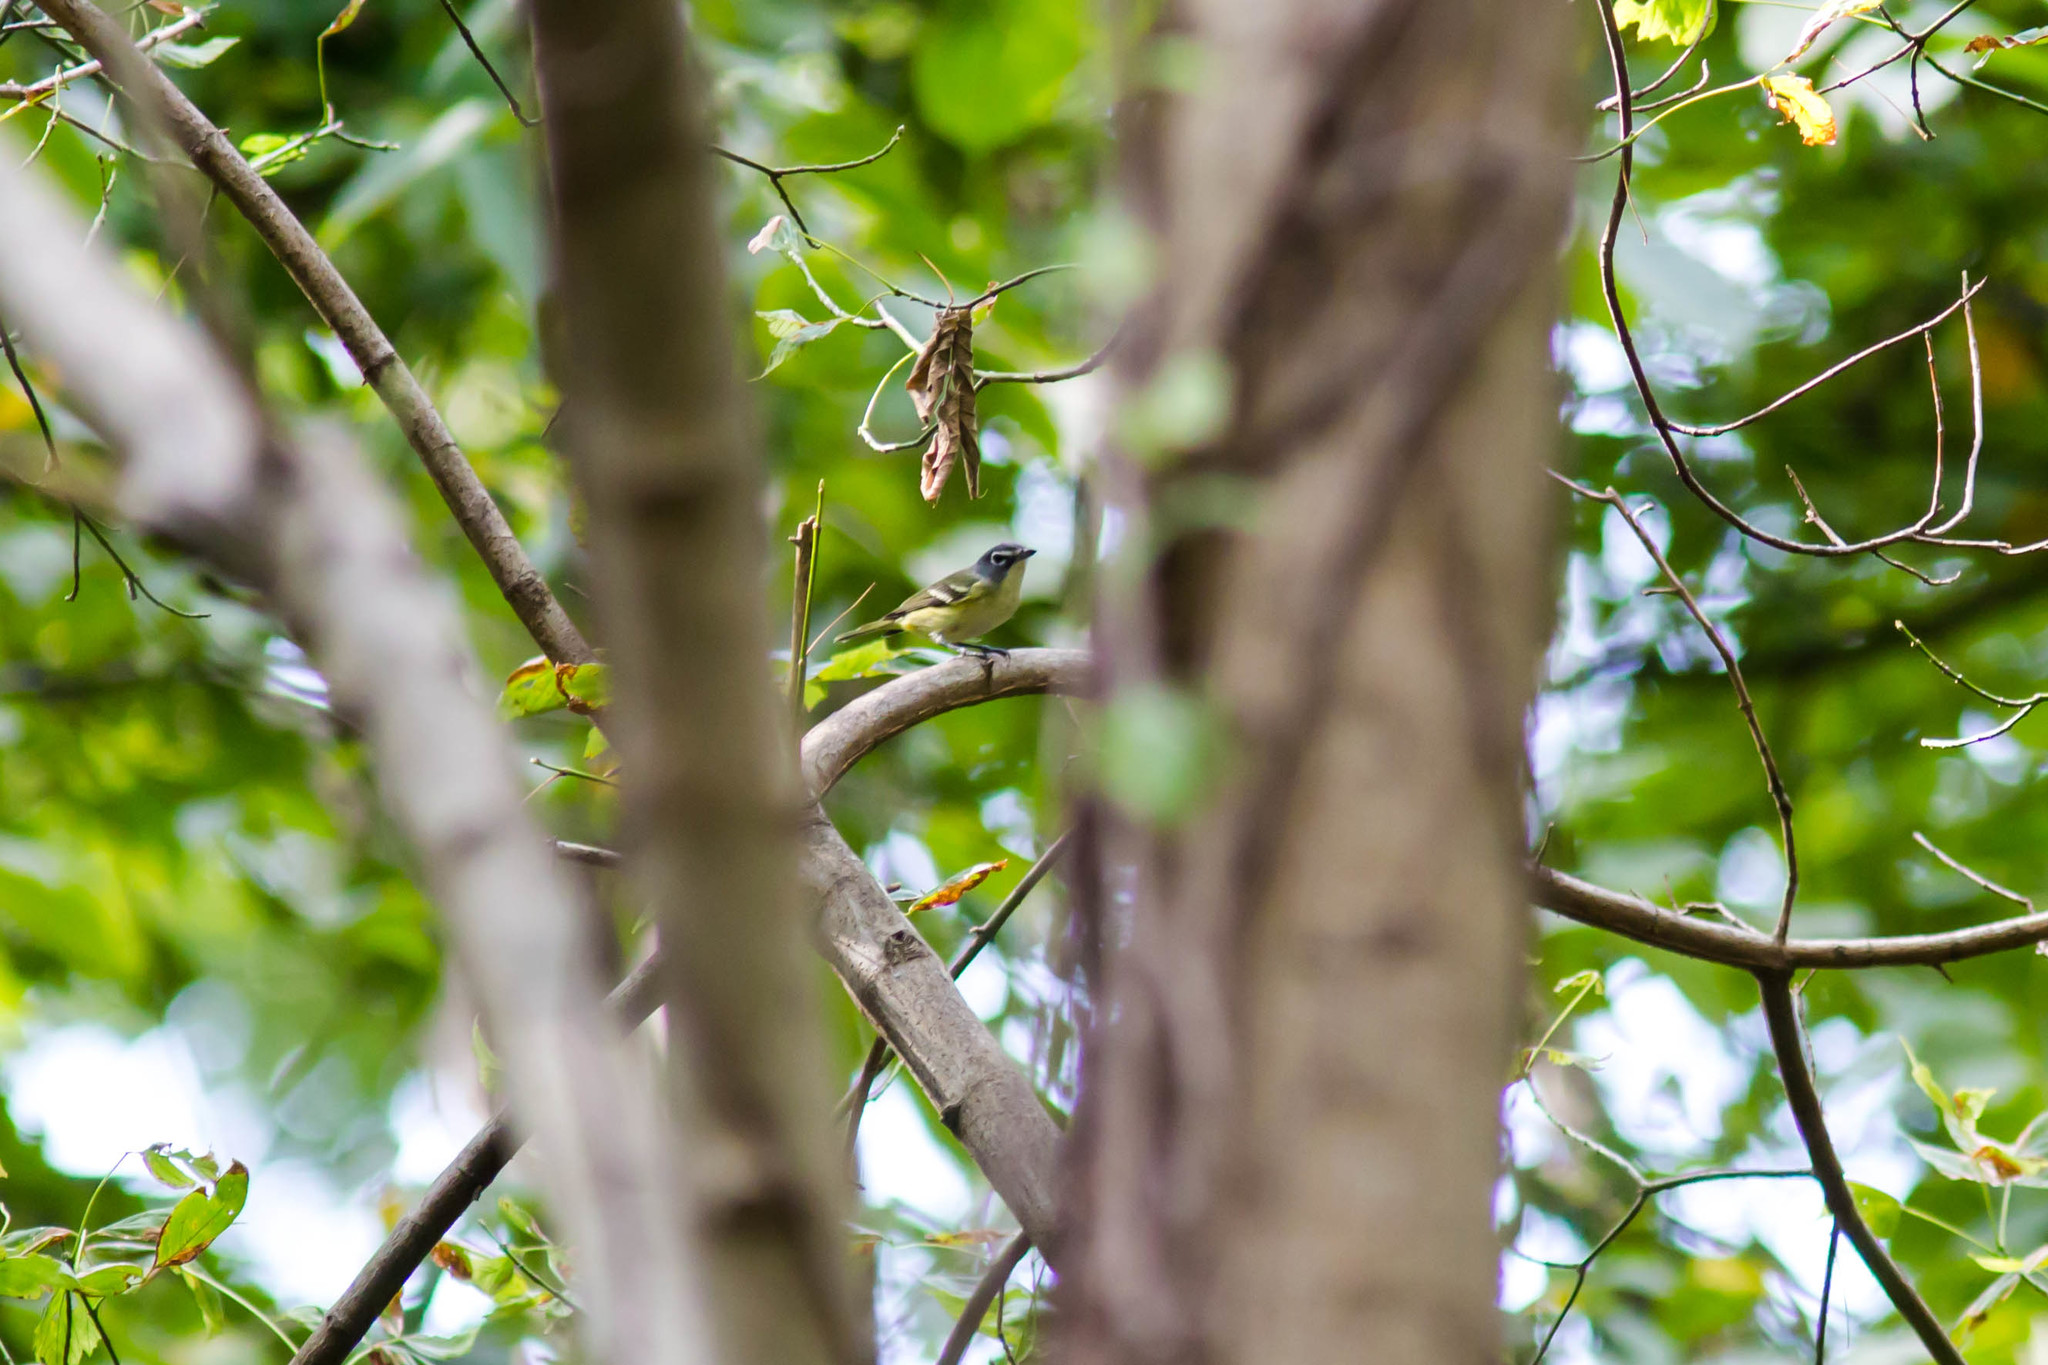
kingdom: Animalia
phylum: Chordata
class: Aves
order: Passeriformes
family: Vireonidae
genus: Vireo
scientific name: Vireo solitarius
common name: Blue-headed vireo
